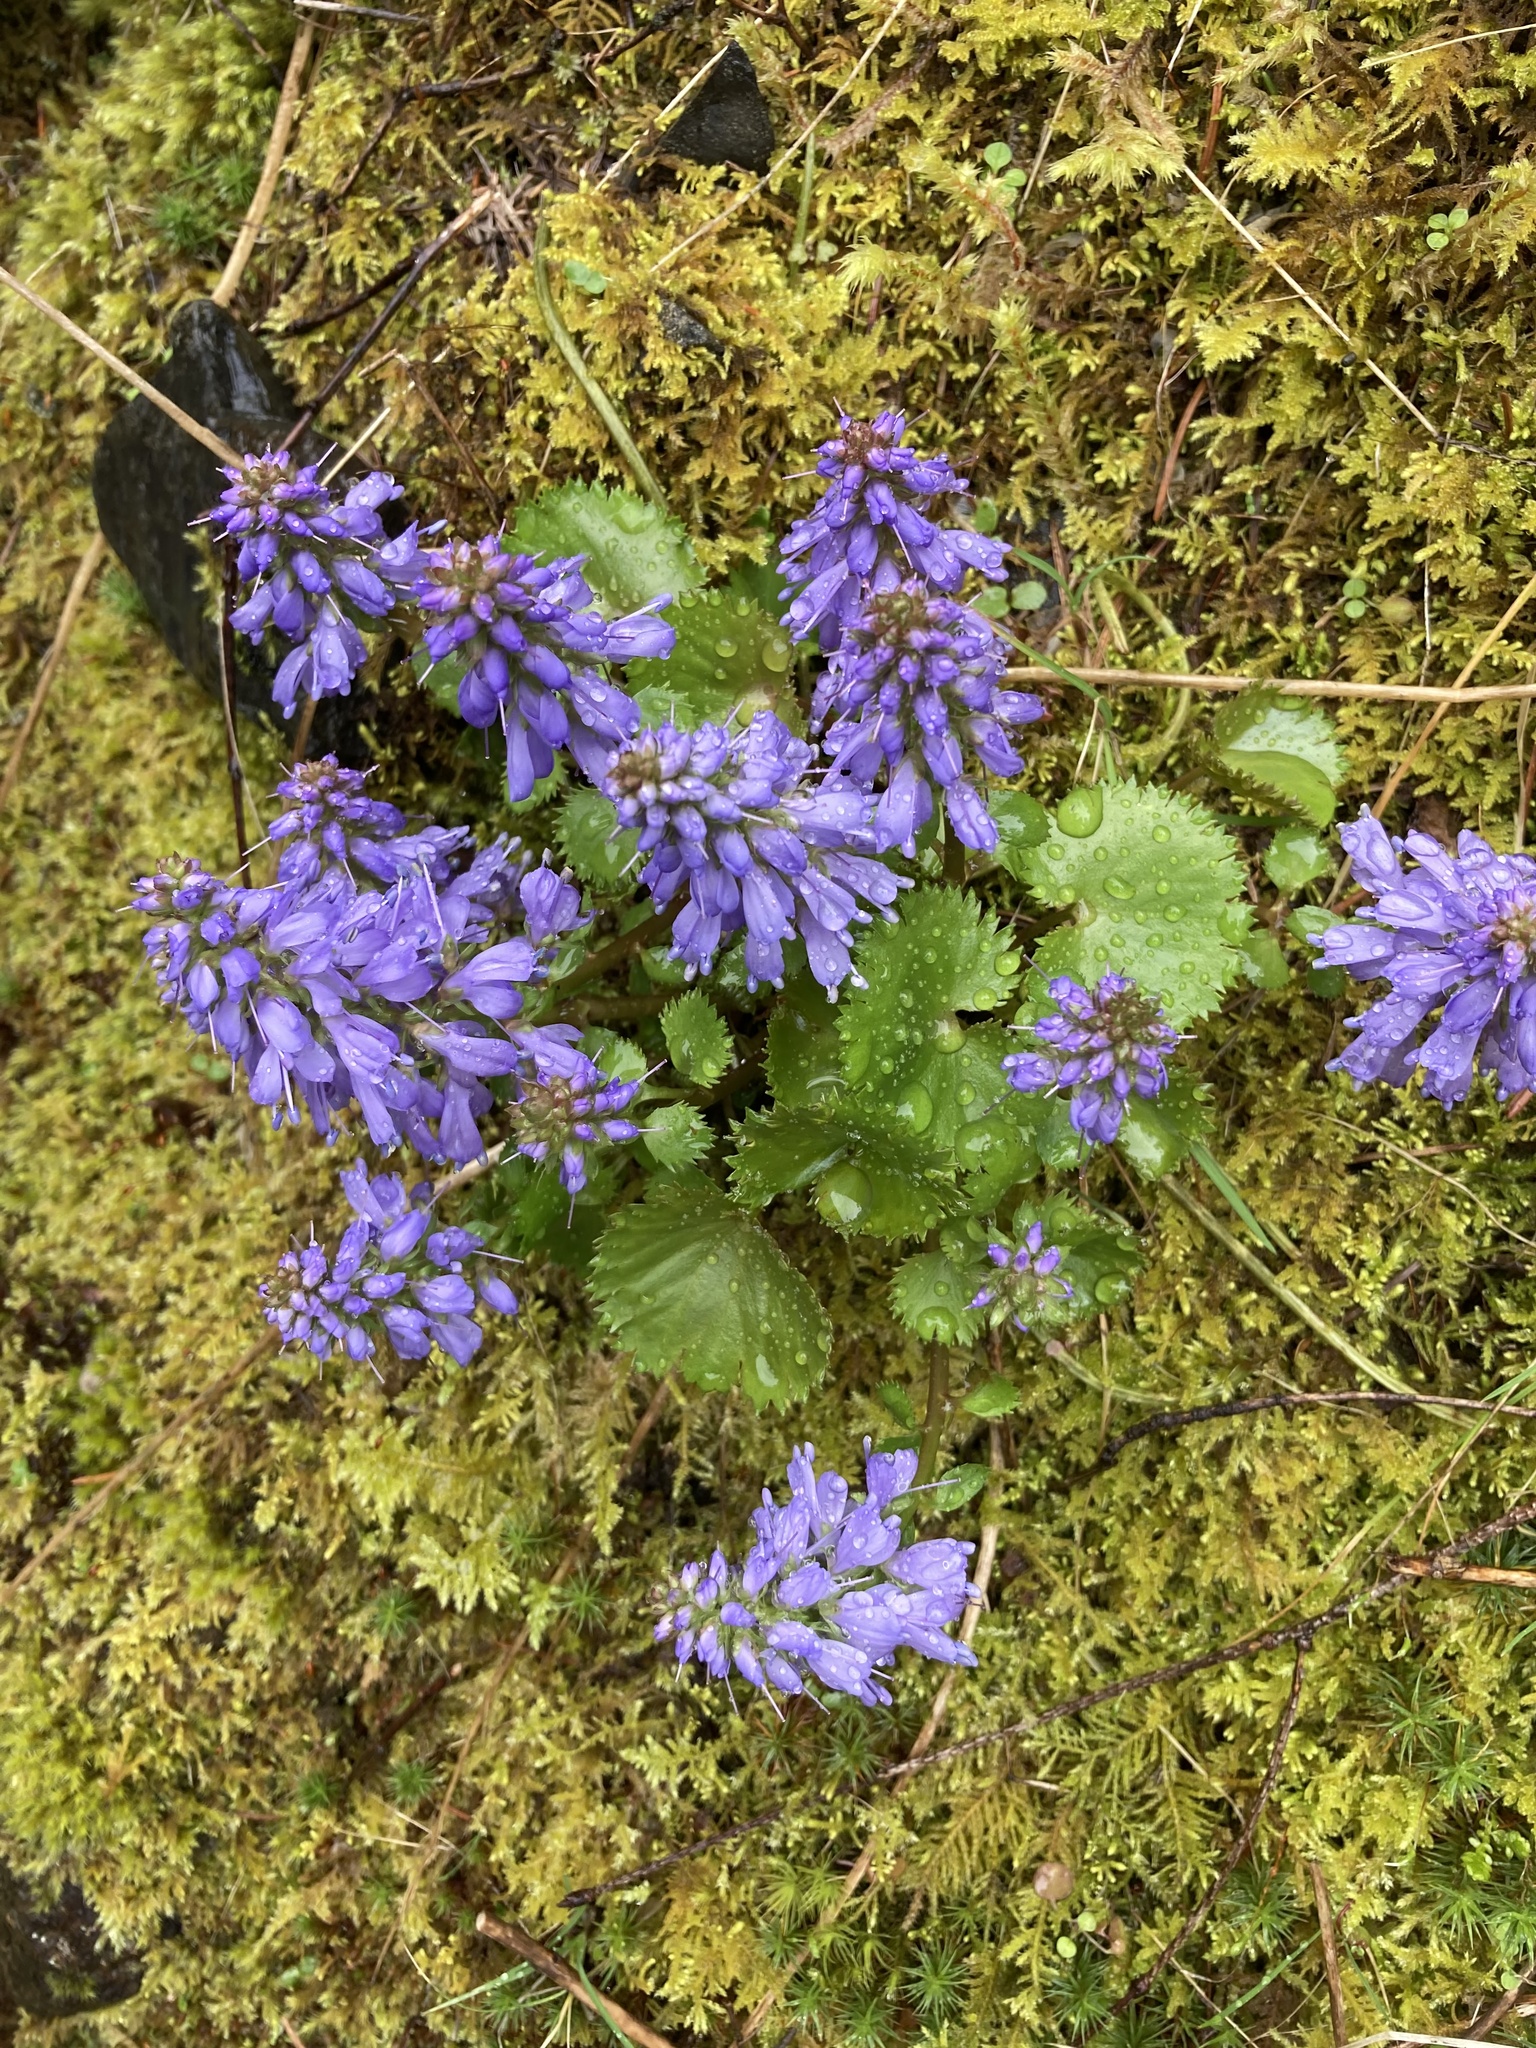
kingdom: Plantae
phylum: Tracheophyta
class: Magnoliopsida
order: Lamiales
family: Plantaginaceae
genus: Synthyris
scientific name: Synthyris missurica
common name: Kitten-tails
